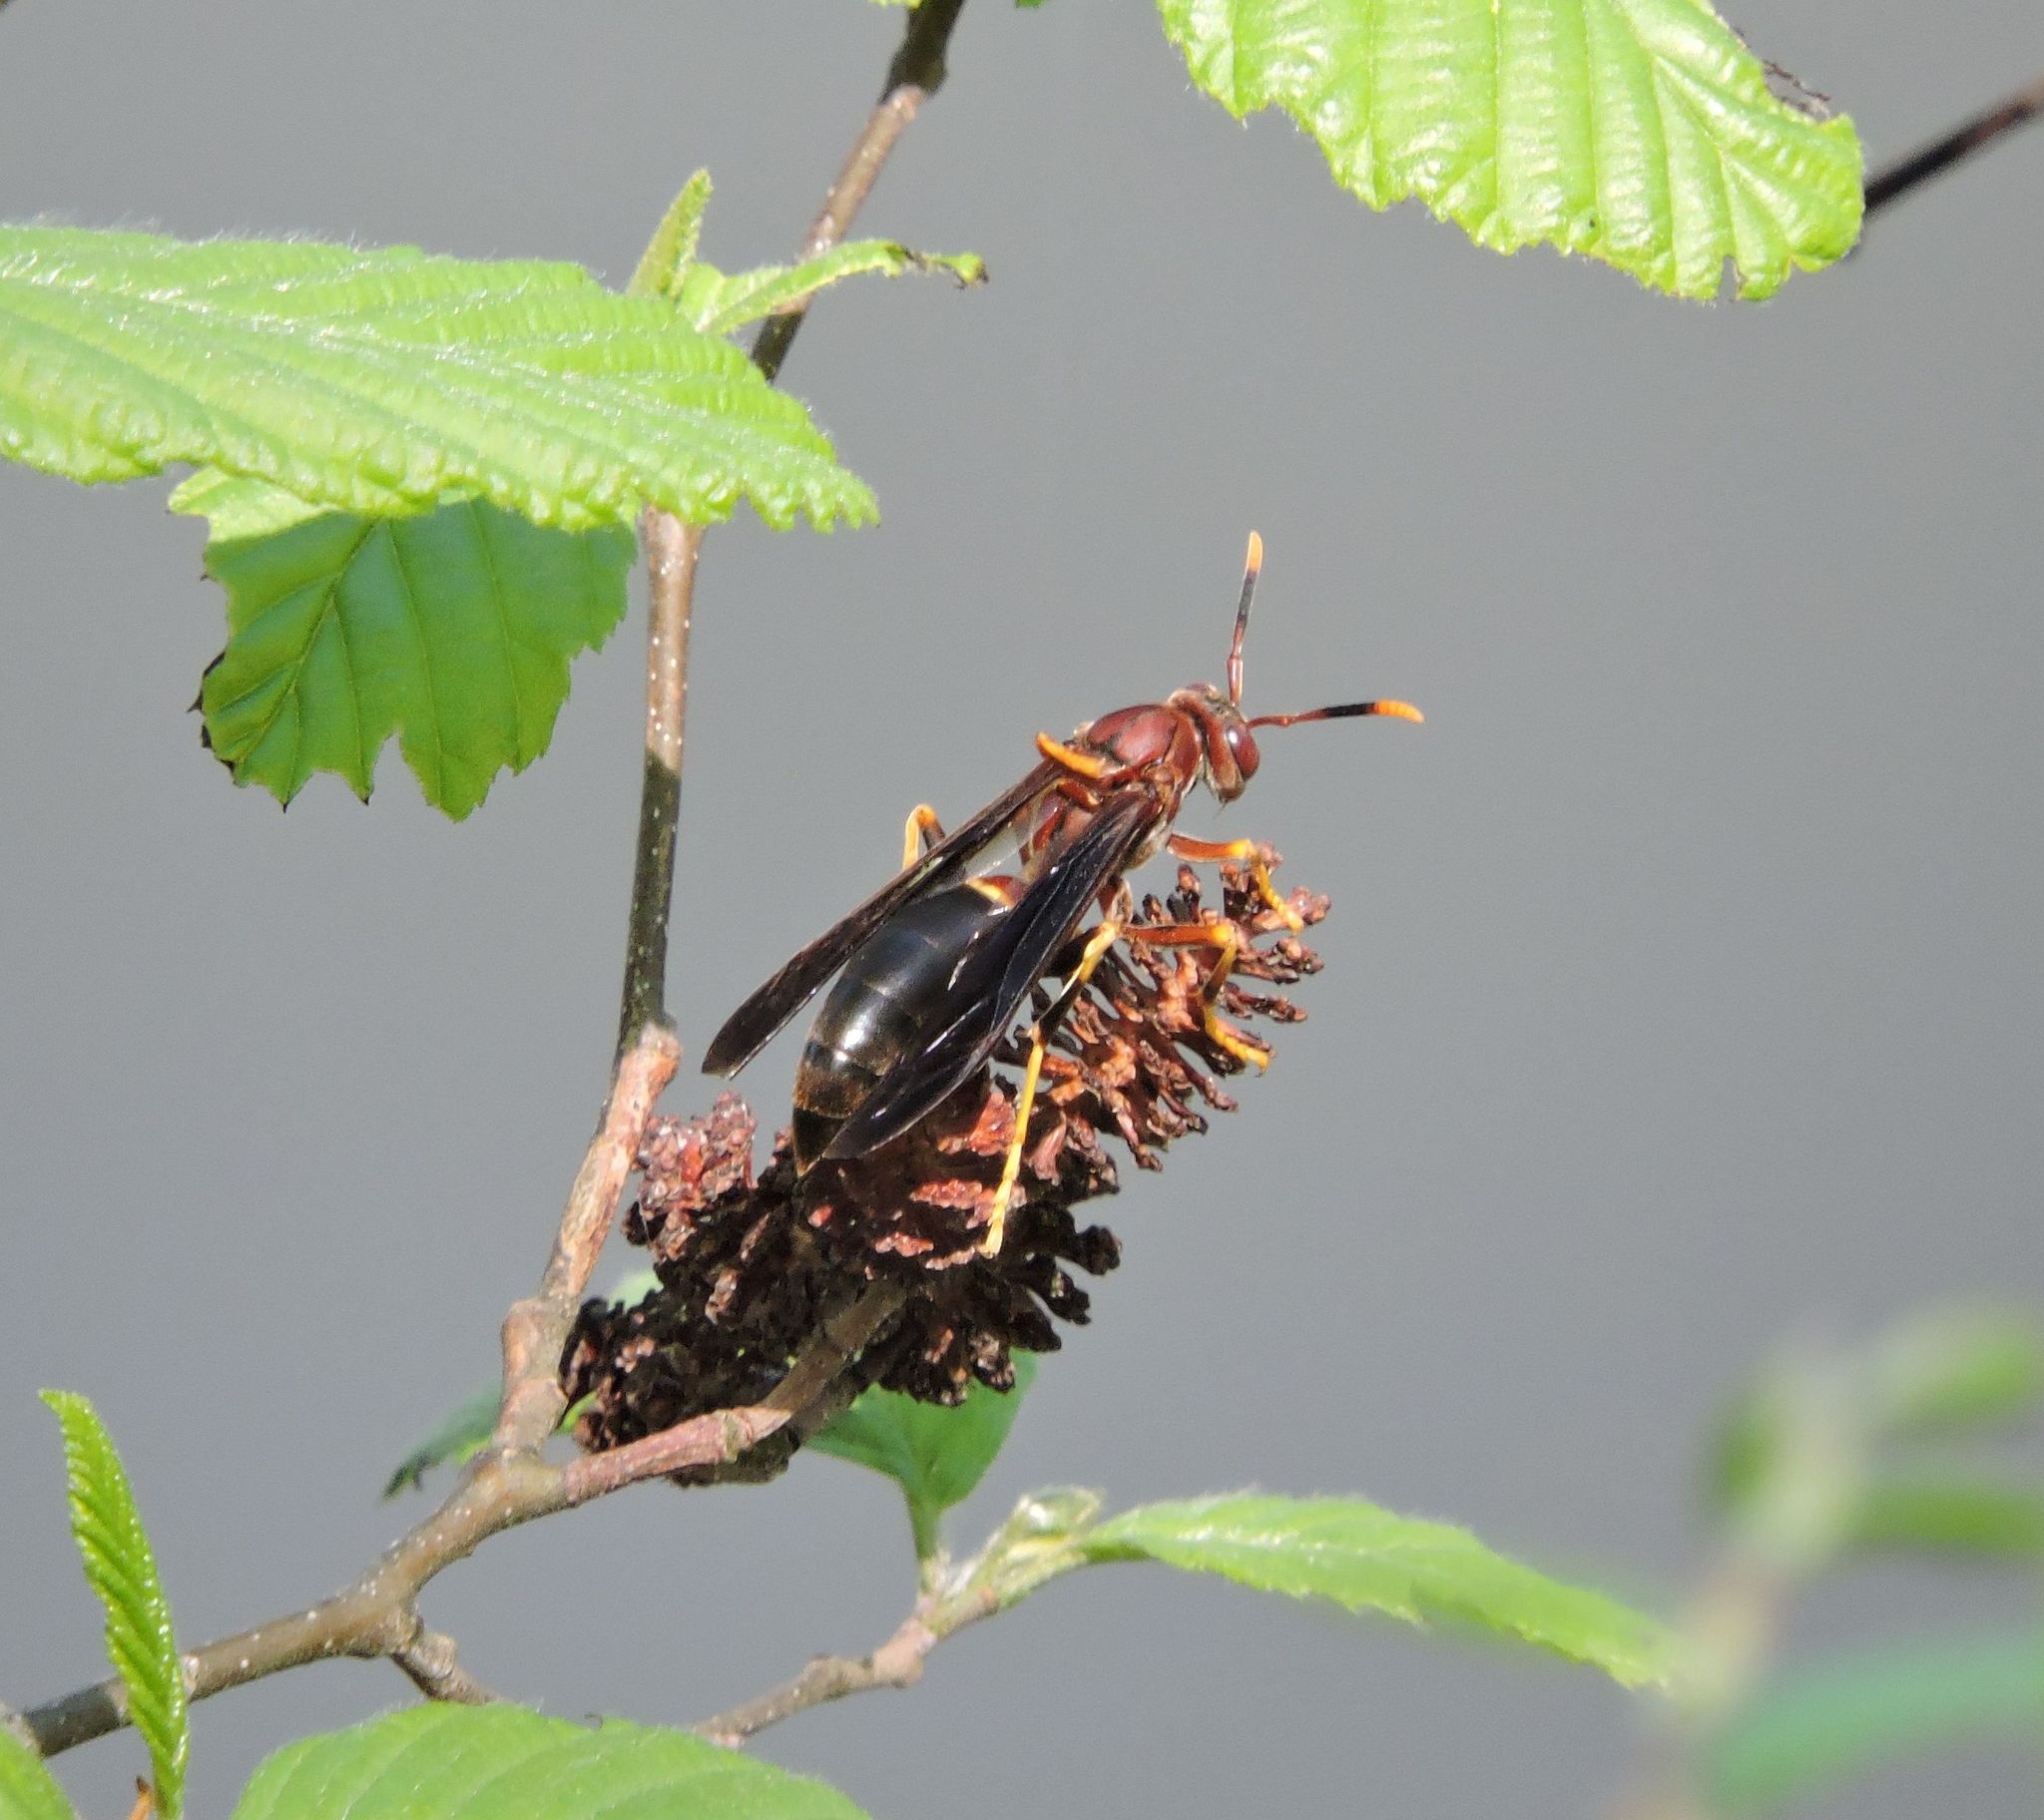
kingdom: Animalia
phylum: Arthropoda
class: Insecta
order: Hymenoptera
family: Eumenidae
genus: Polistes
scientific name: Polistes annularis
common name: Ringed paper wasp
